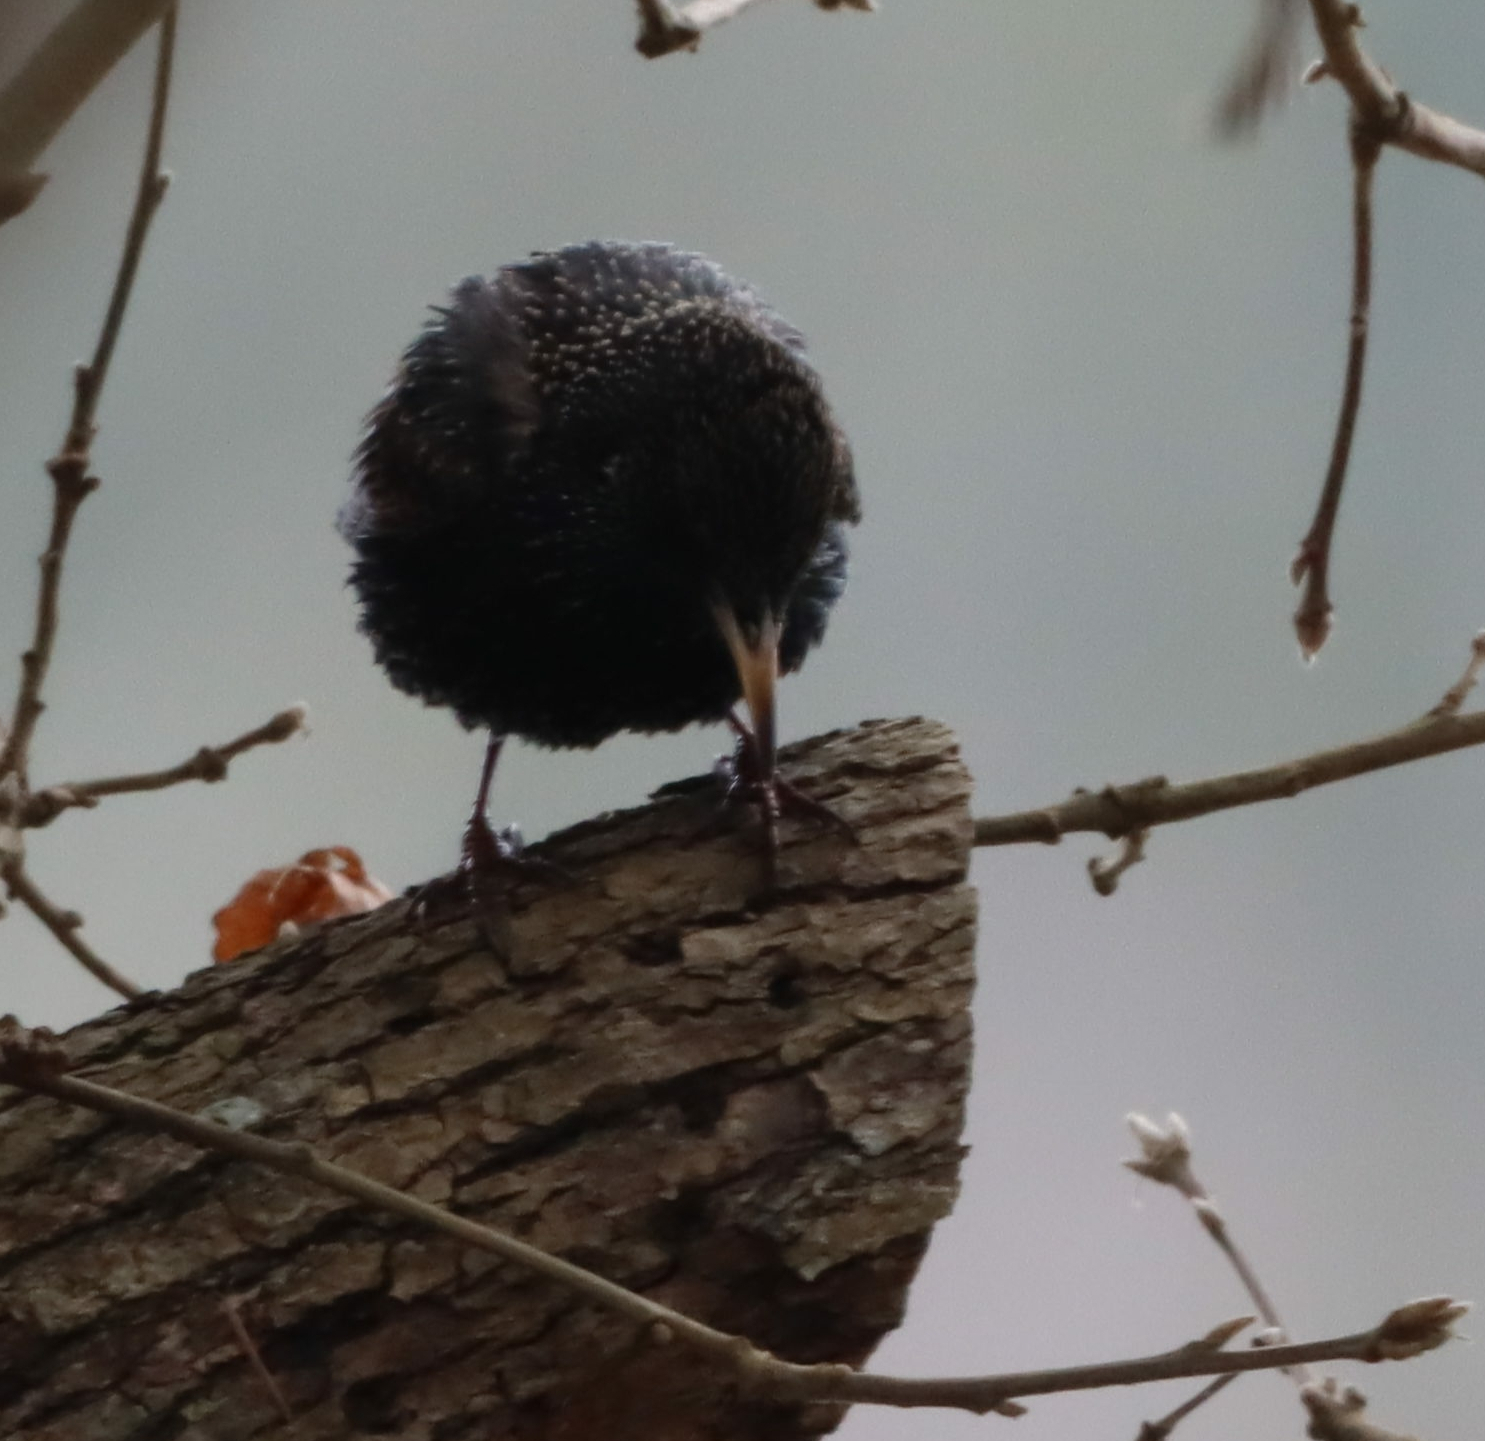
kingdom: Animalia
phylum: Chordata
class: Aves
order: Passeriformes
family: Sturnidae
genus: Sturnus
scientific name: Sturnus vulgaris
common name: Common starling
